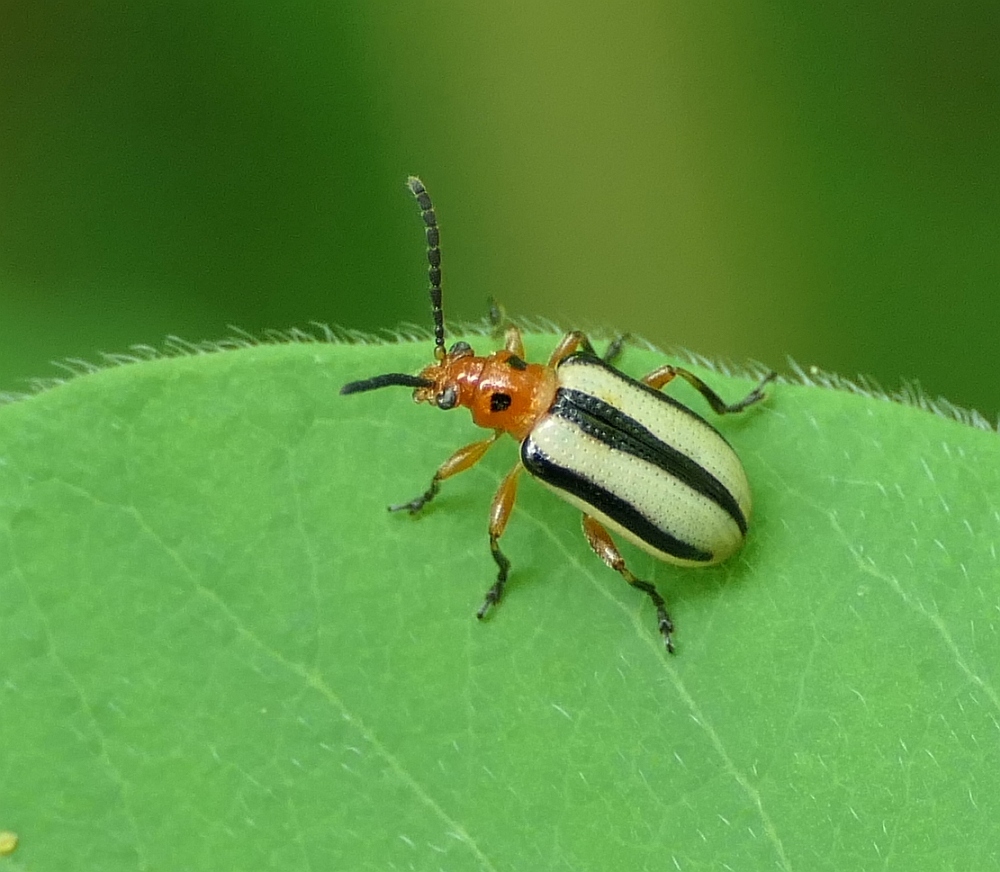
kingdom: Animalia
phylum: Arthropoda
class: Insecta
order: Coleoptera
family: Chrysomelidae
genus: Lema
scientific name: Lema daturaphila
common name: Leaf beetle
